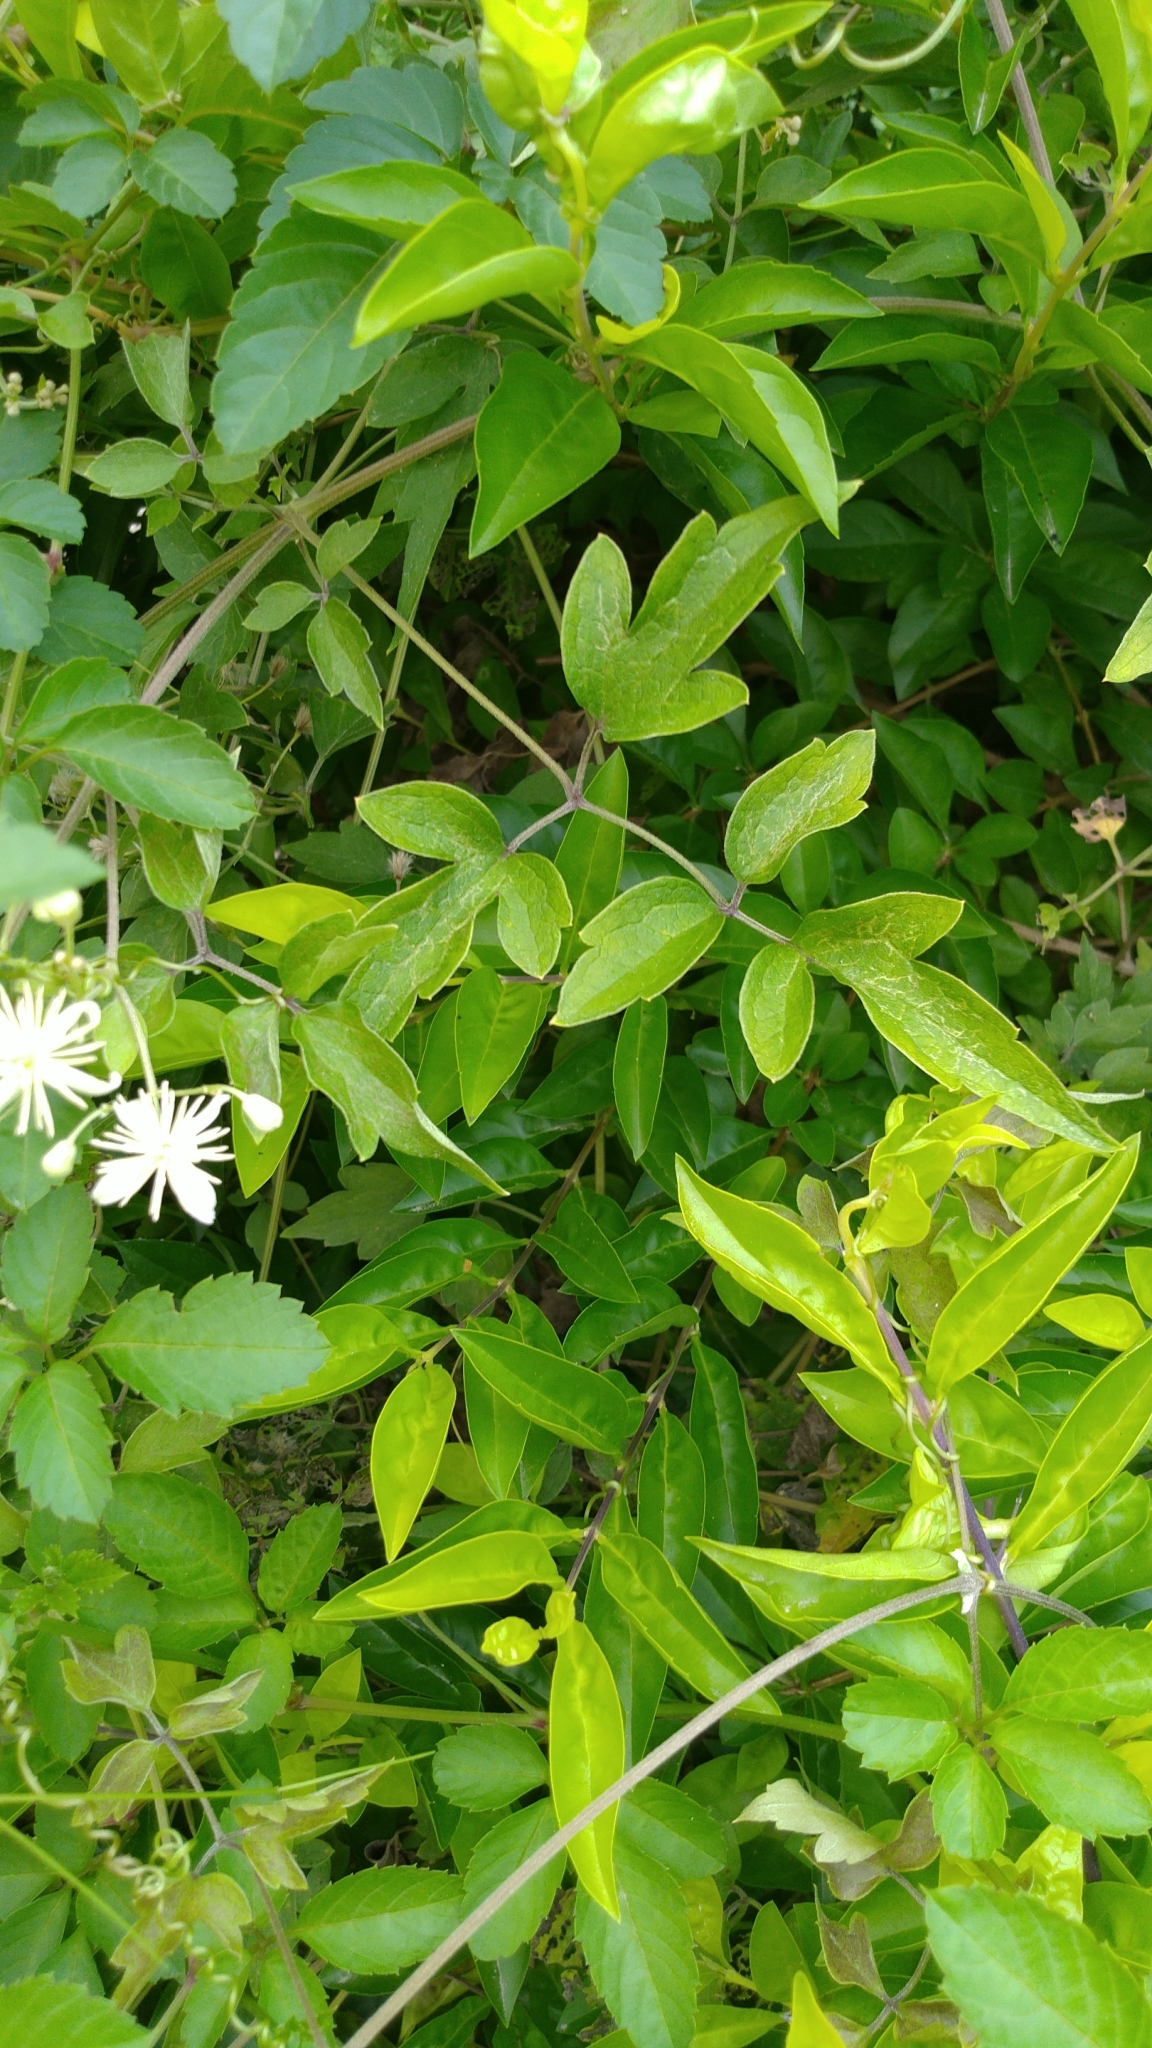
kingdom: Plantae
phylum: Tracheophyta
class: Magnoliopsida
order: Ranunculales
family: Ranunculaceae
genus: Clematis
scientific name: Clematis grata
